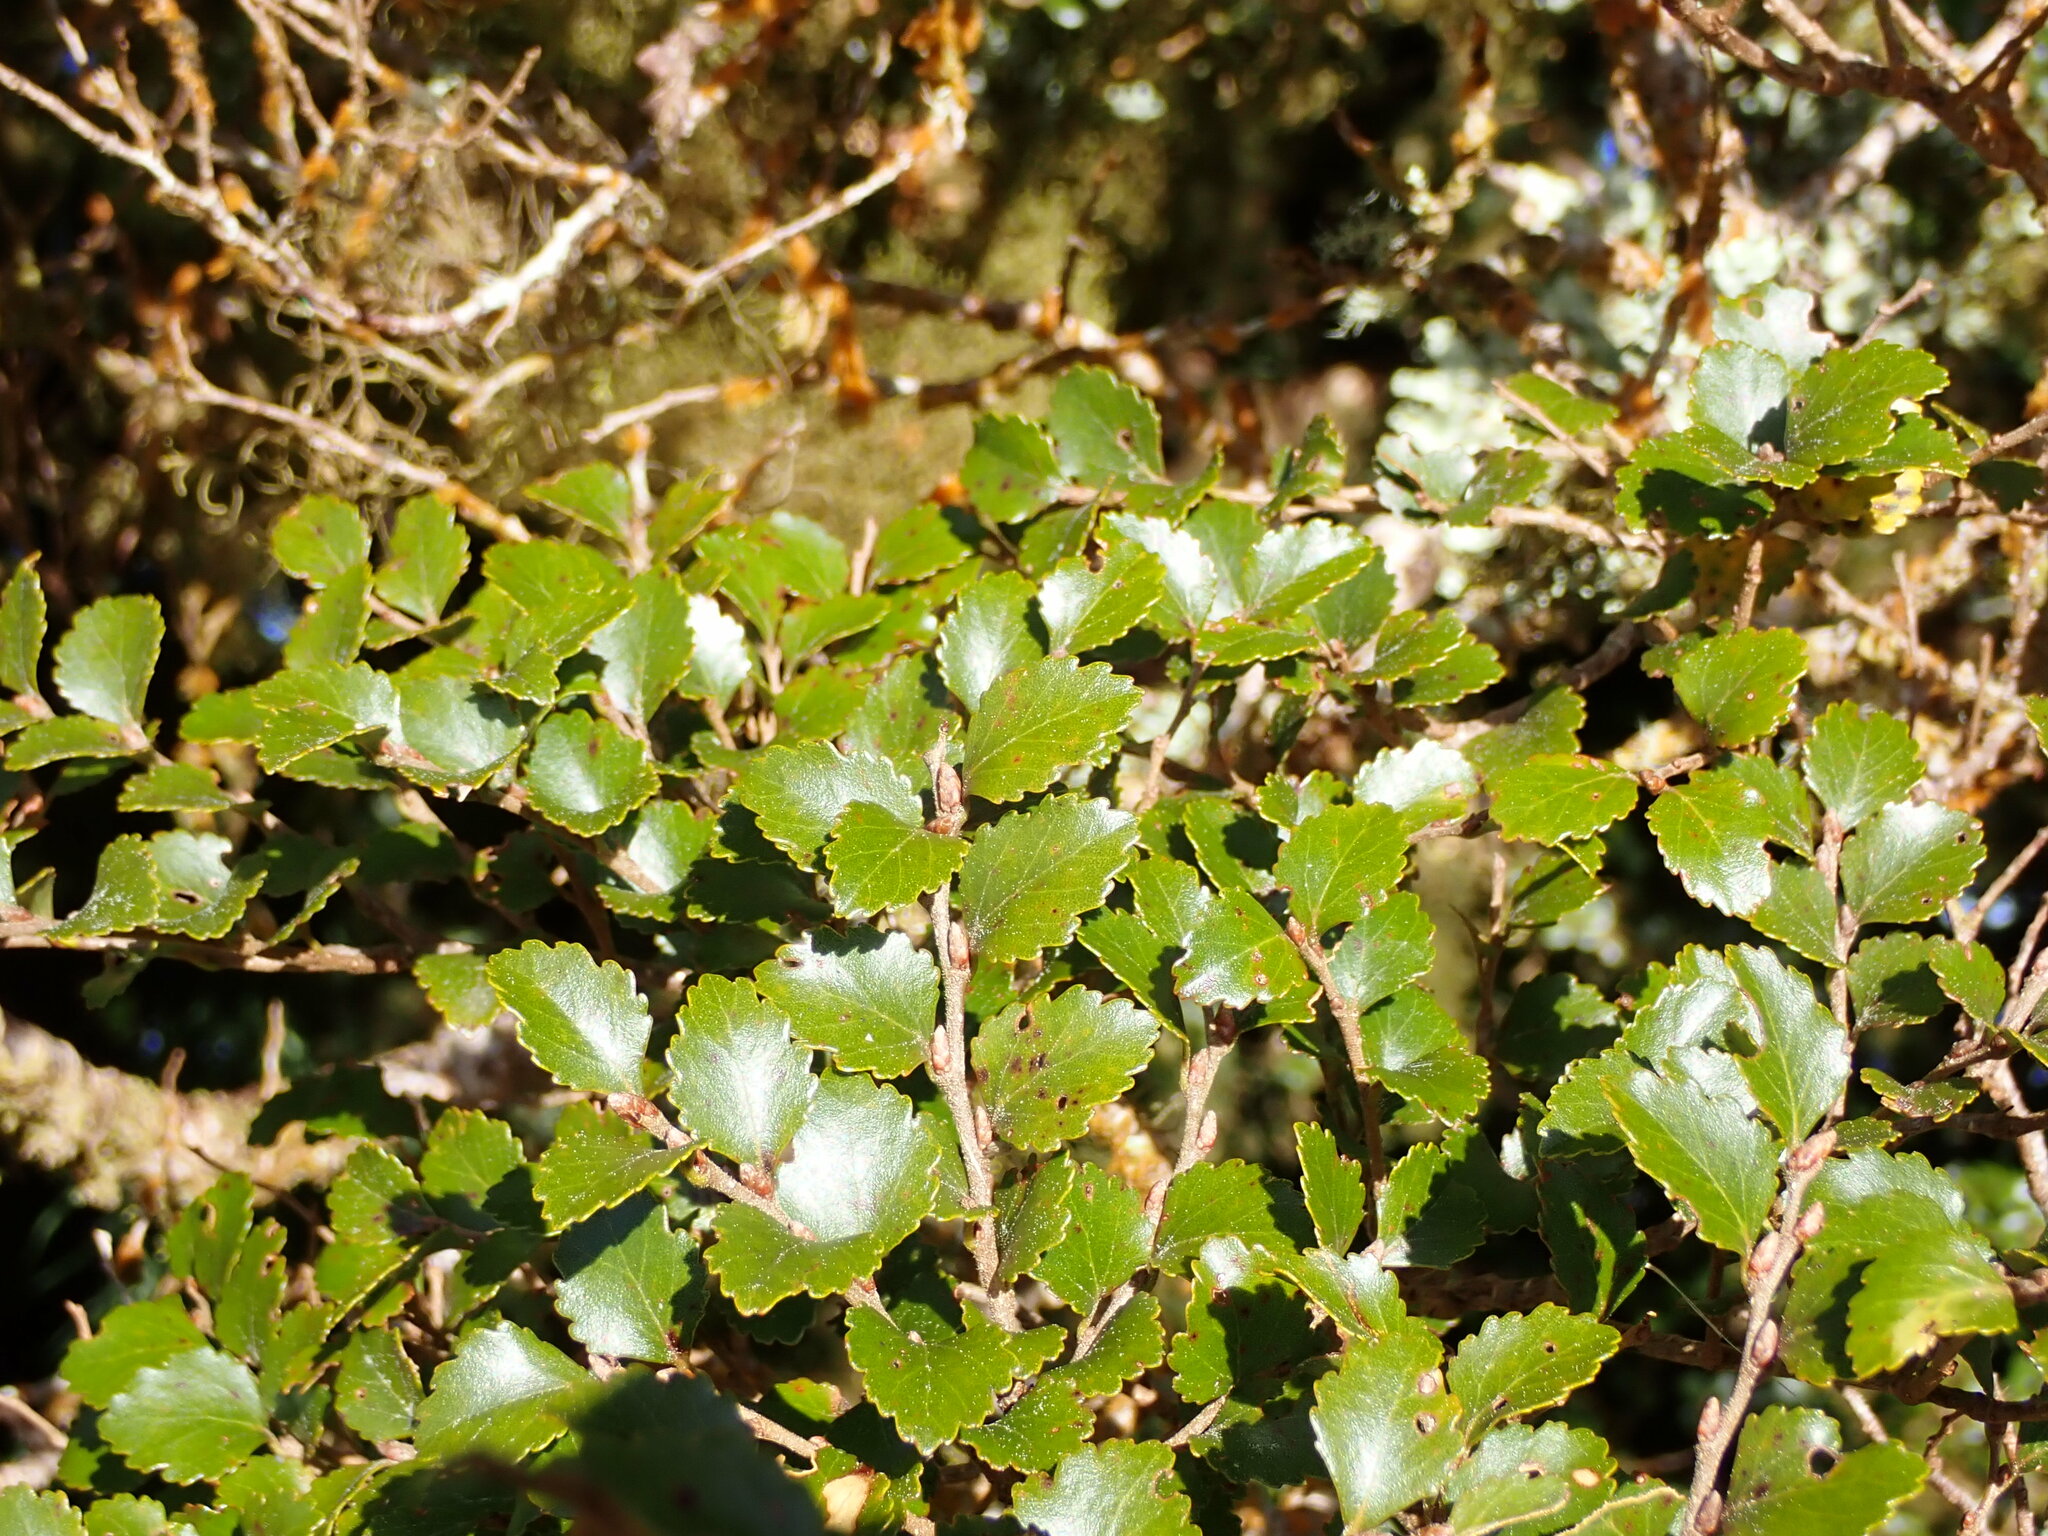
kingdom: Plantae
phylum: Tracheophyta
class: Magnoliopsida
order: Fagales
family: Nothofagaceae
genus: Nothofagus
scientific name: Nothofagus menziesii
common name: Silver beech
